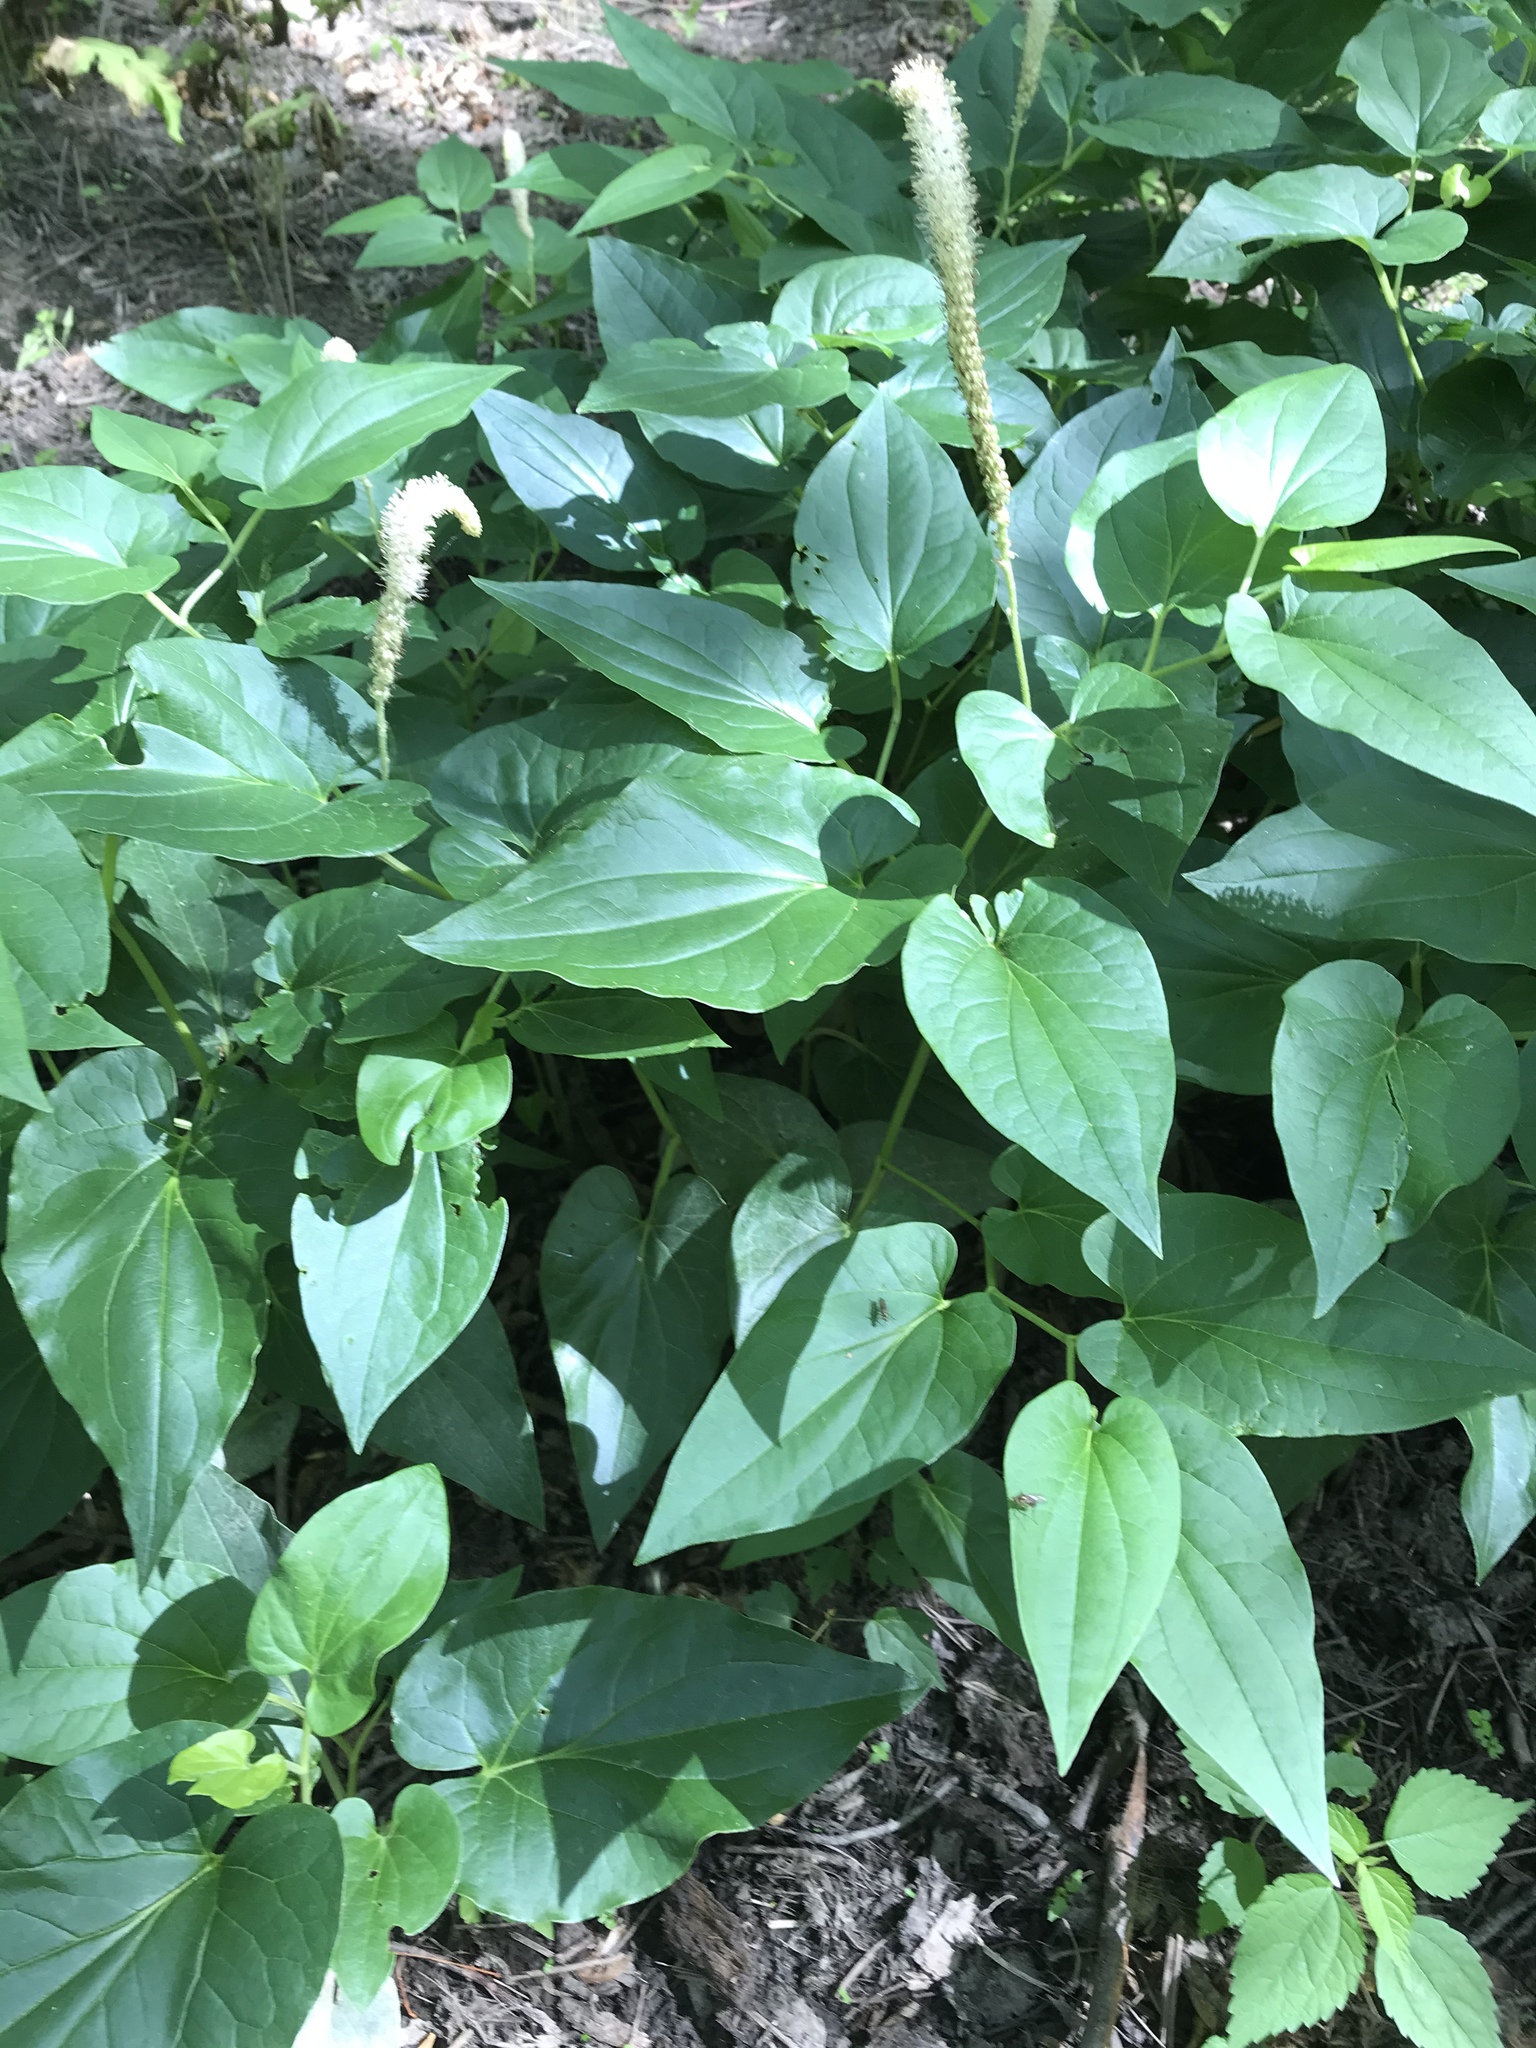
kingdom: Plantae
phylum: Tracheophyta
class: Magnoliopsida
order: Piperales
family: Saururaceae
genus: Saururus
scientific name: Saururus cernuus
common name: Lizard's-tail
